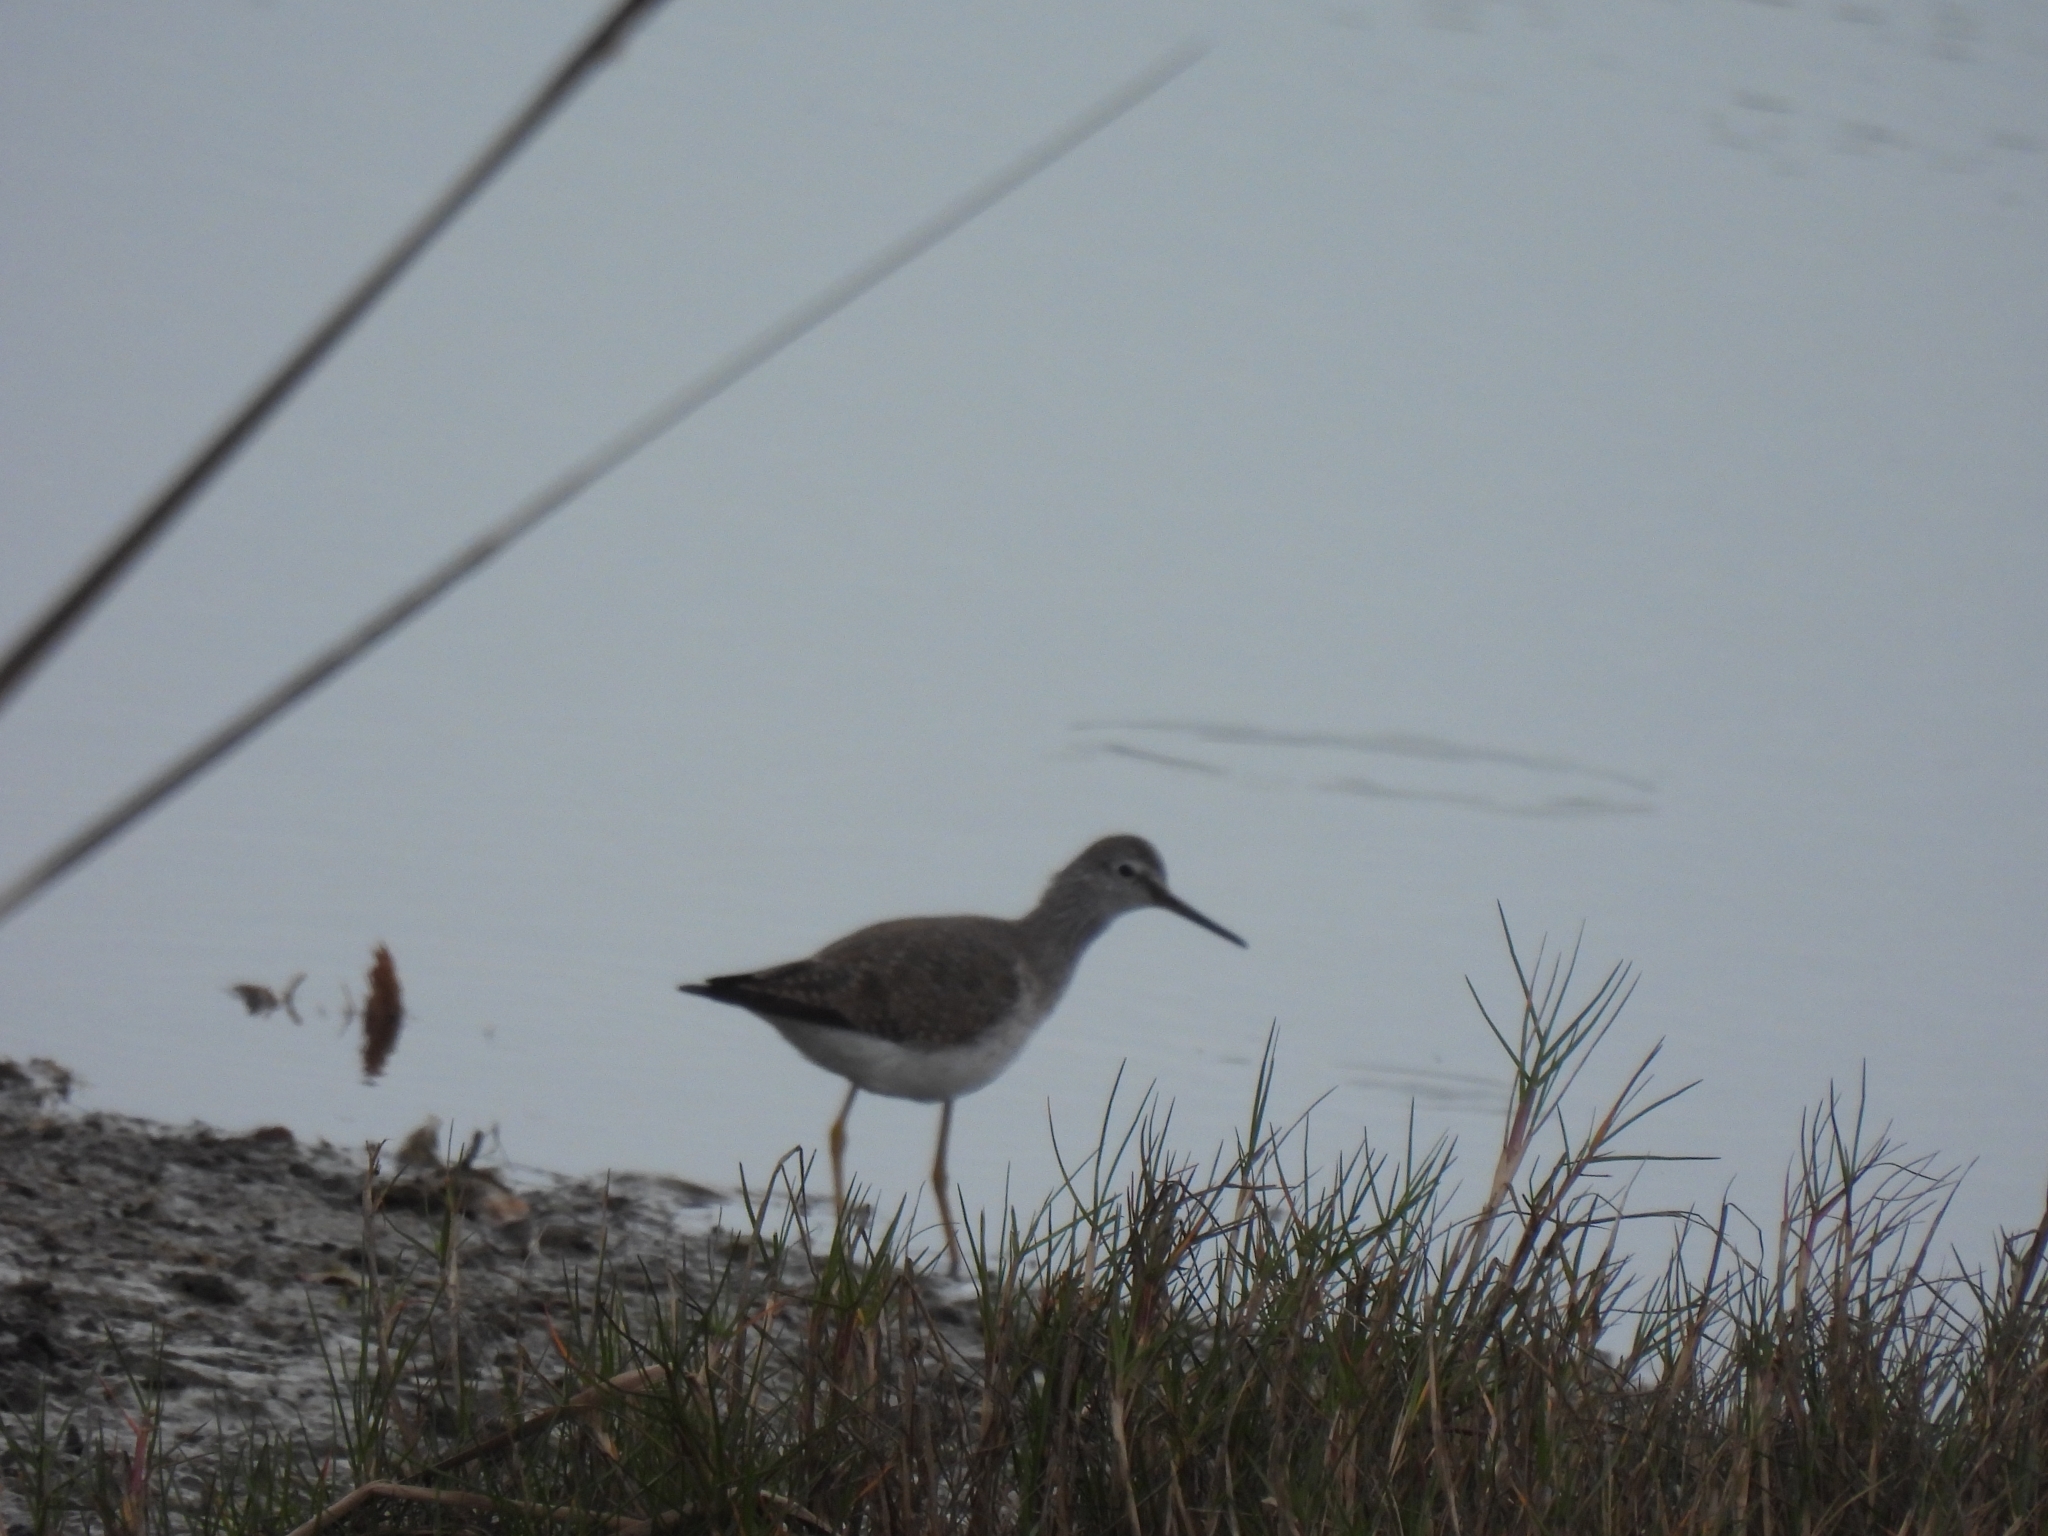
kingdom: Animalia
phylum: Chordata
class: Aves
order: Charadriiformes
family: Scolopacidae
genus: Tringa
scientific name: Tringa flavipes
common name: Lesser yellowlegs
